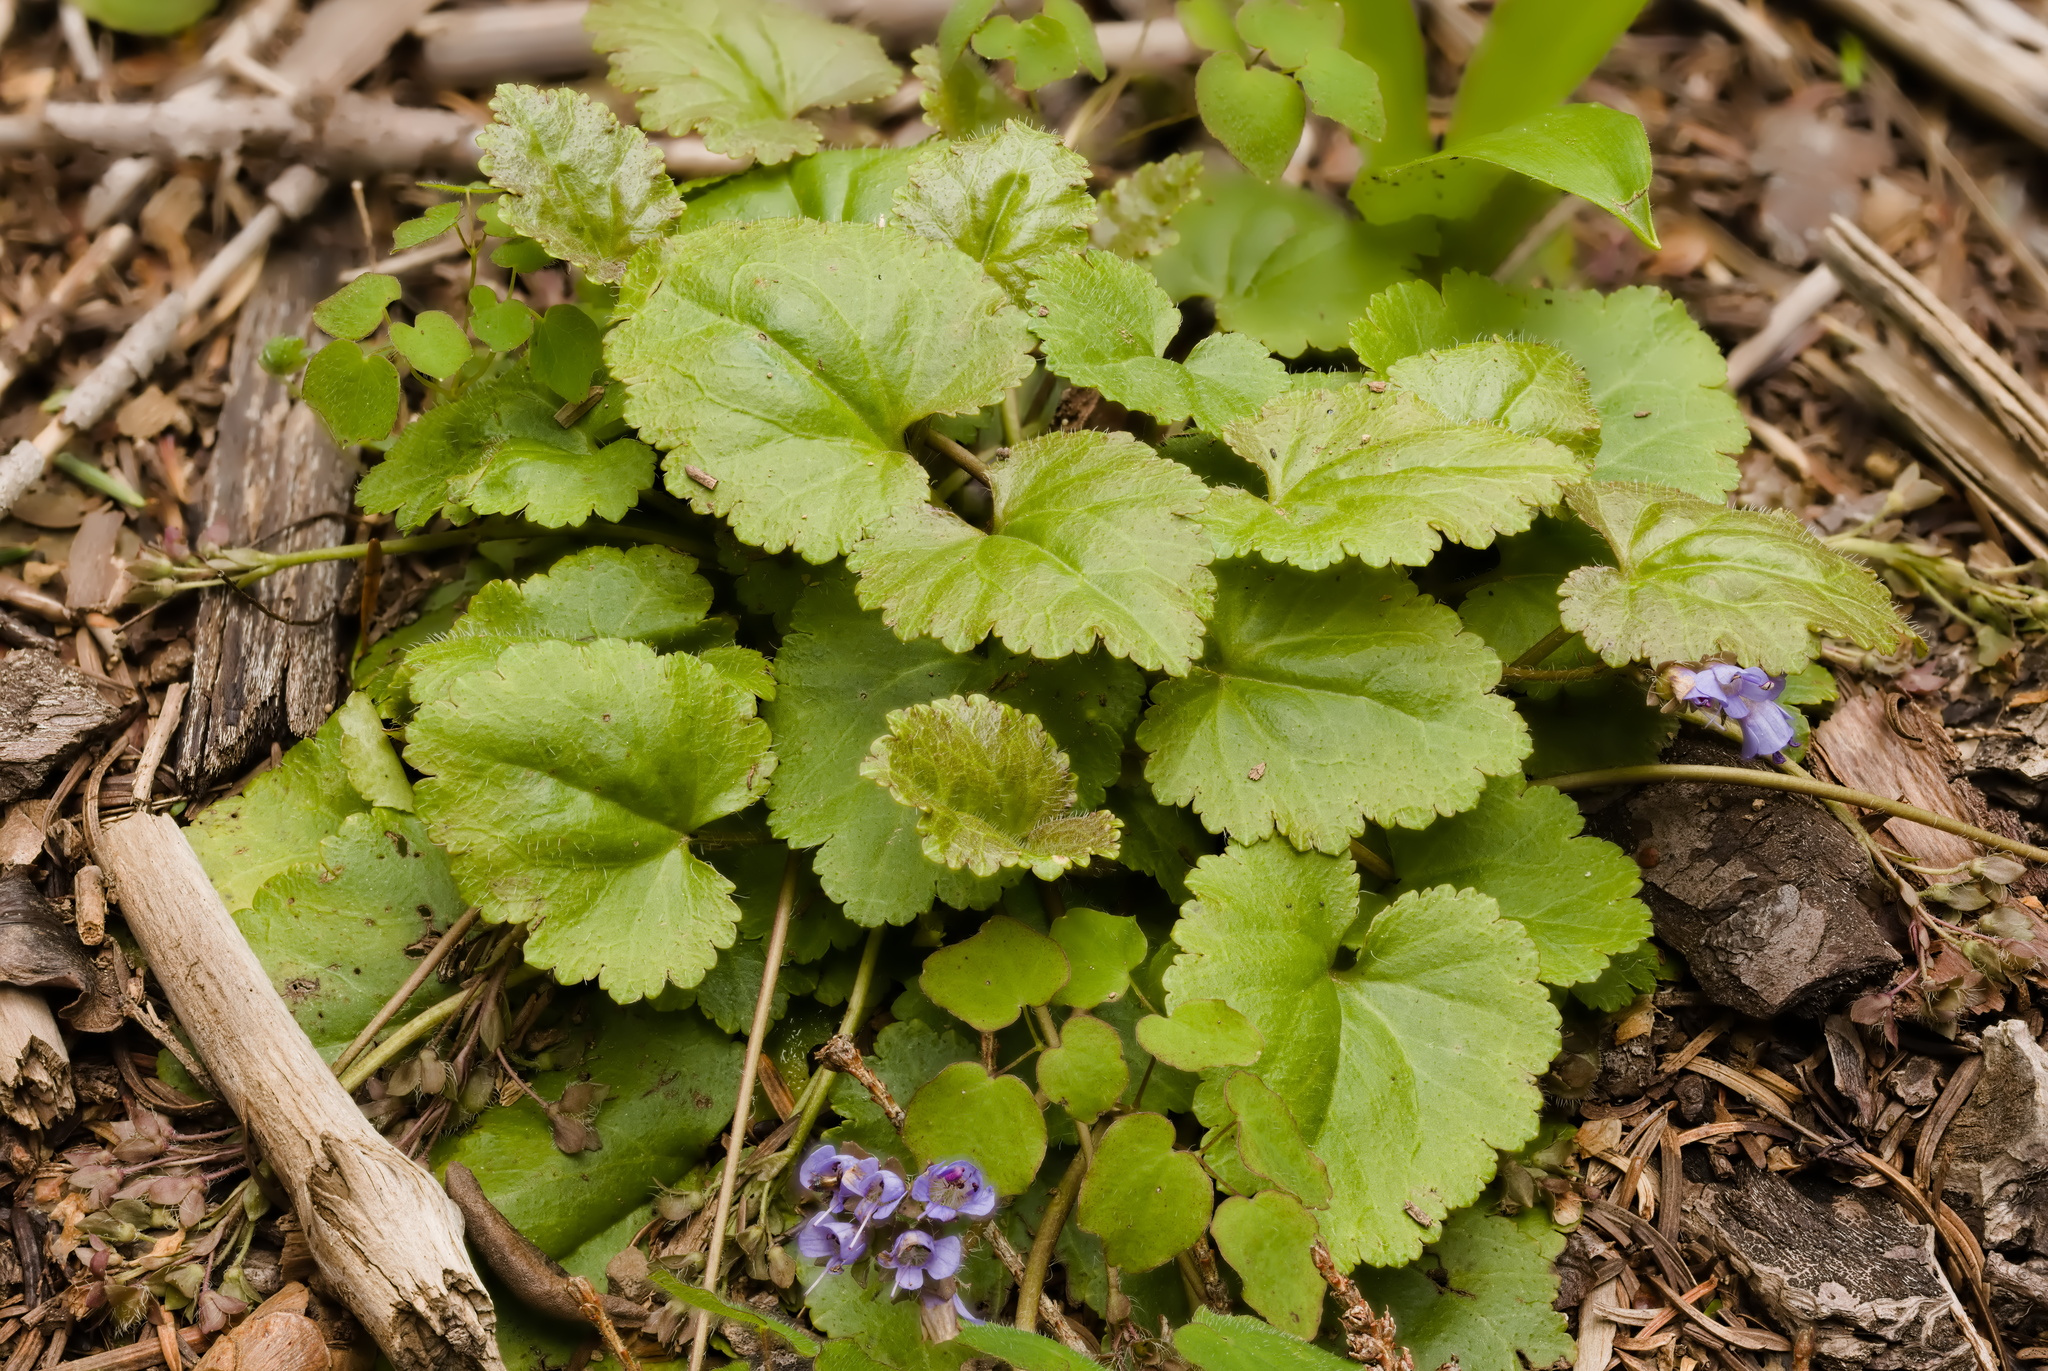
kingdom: Plantae
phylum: Tracheophyta
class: Magnoliopsida
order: Lamiales
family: Plantaginaceae
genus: Synthyris
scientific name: Synthyris reniformis
